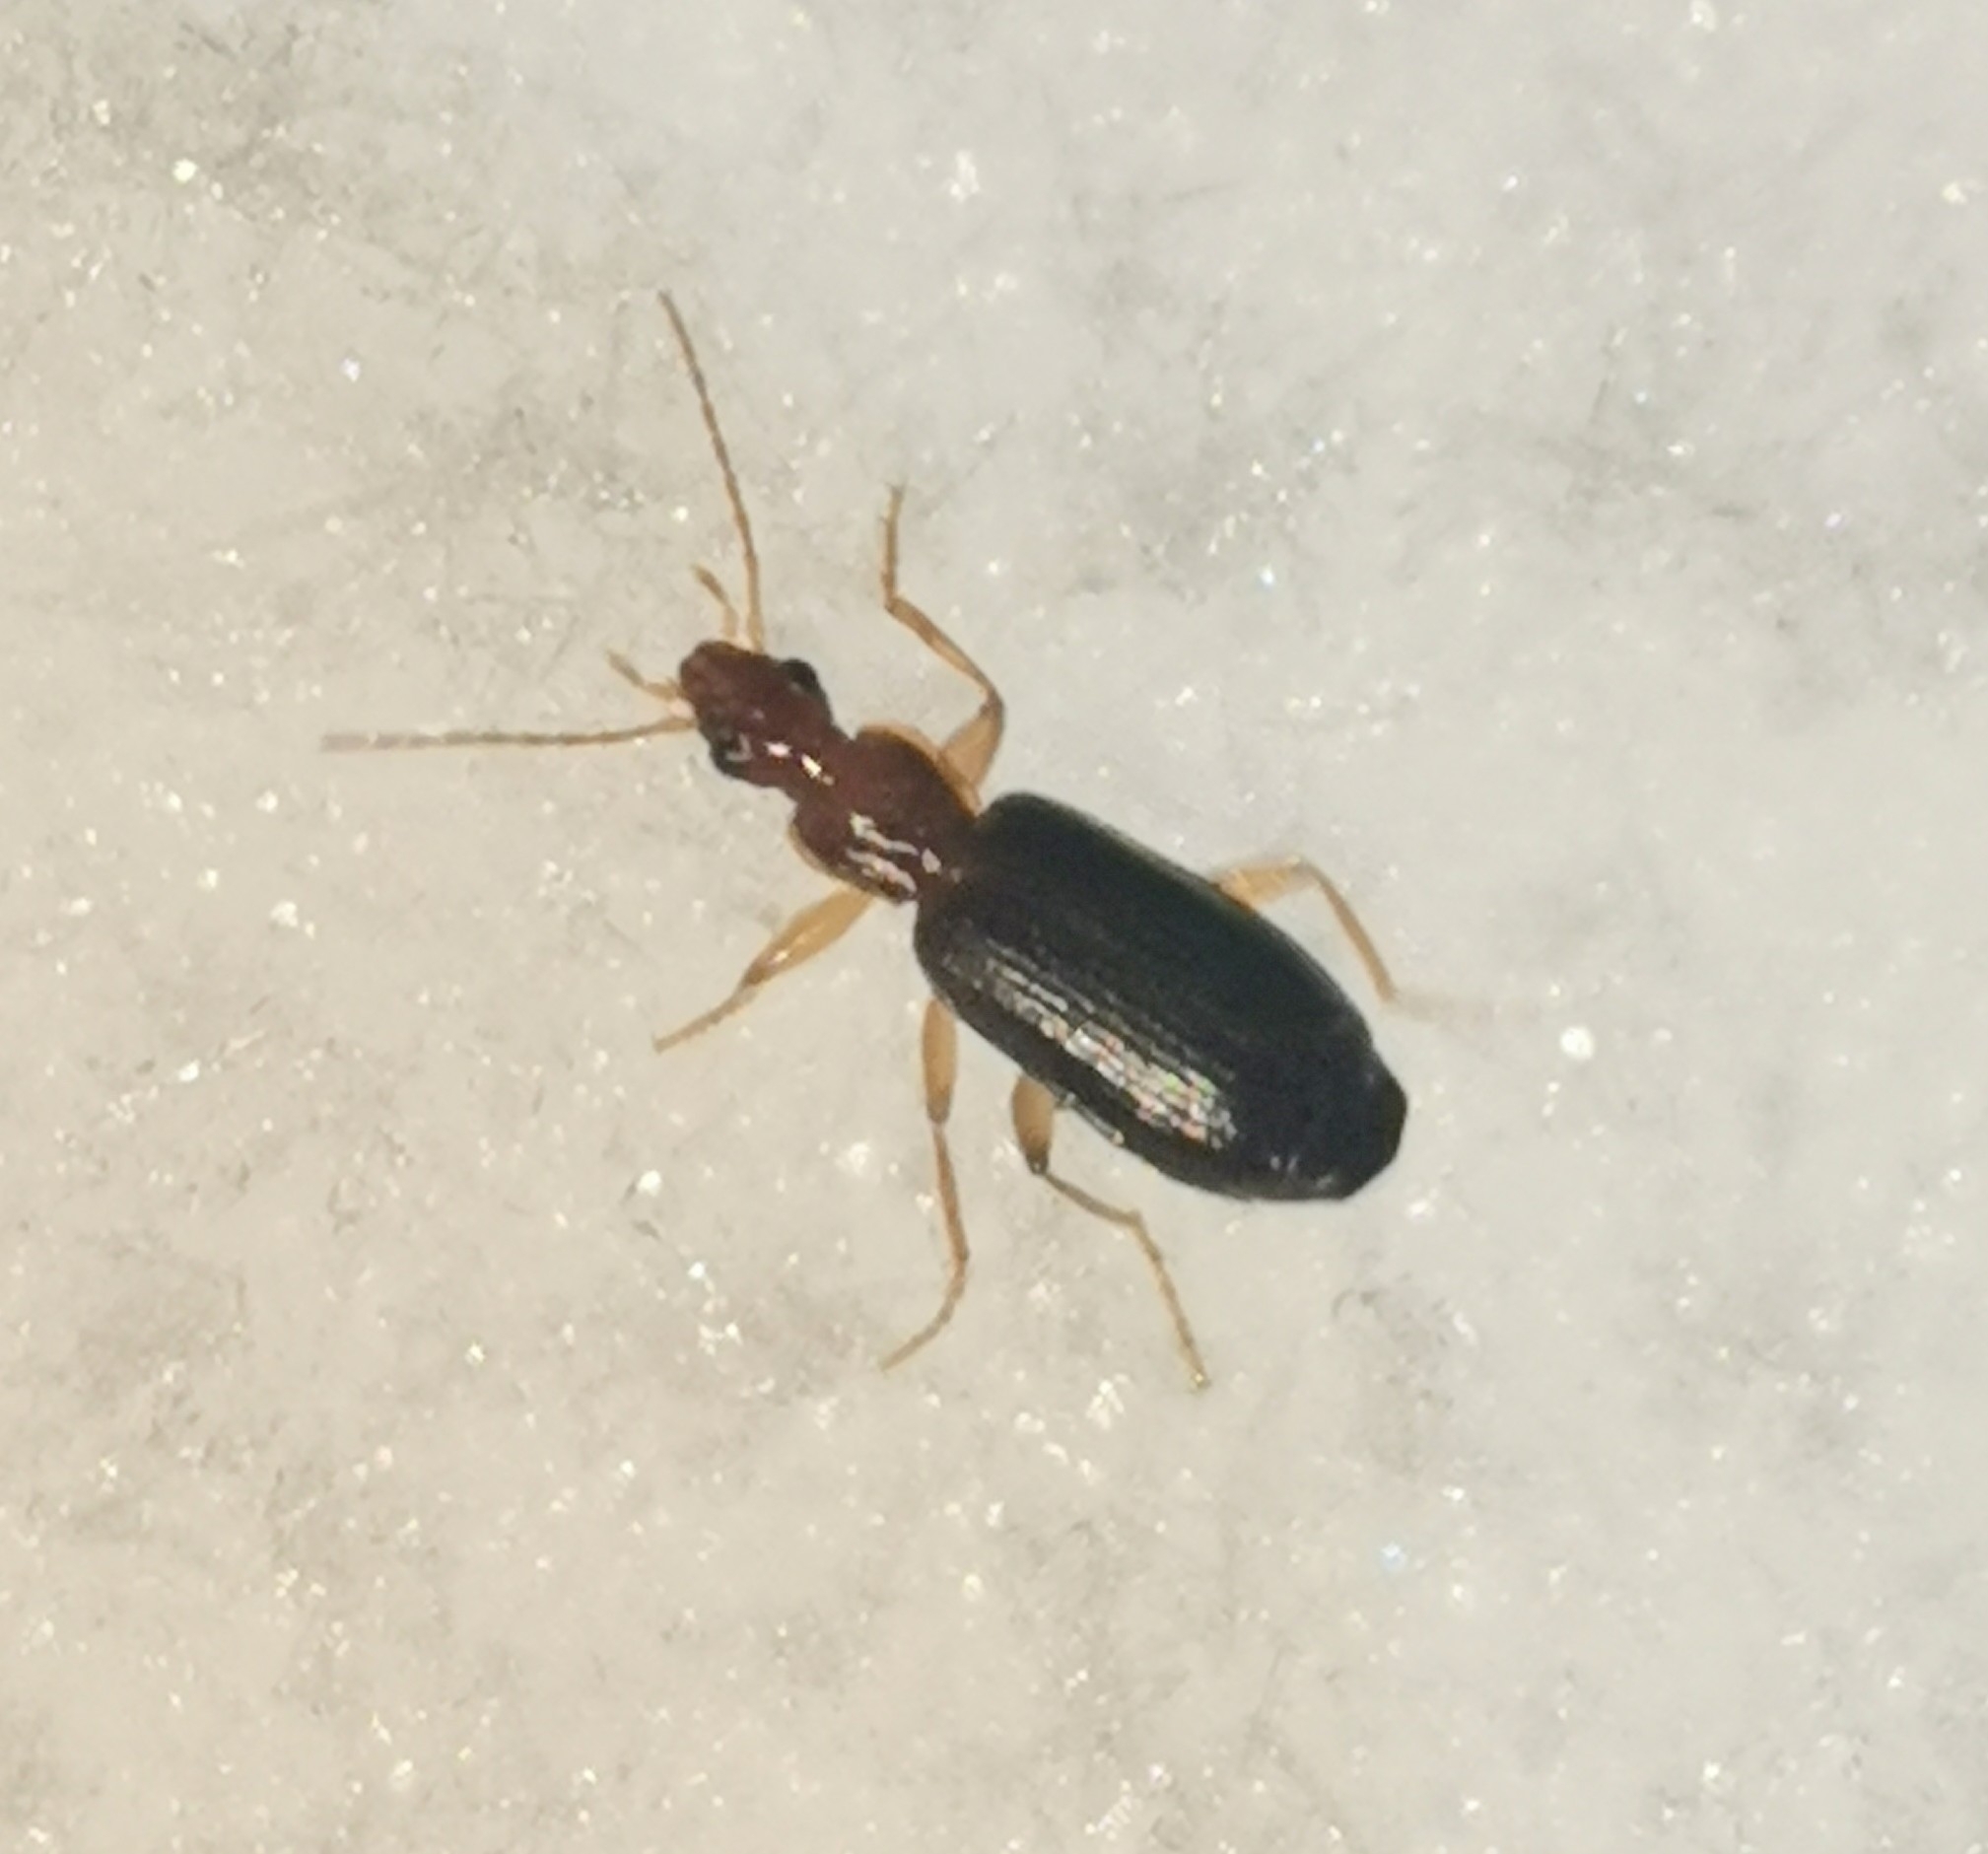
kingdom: Animalia
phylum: Arthropoda
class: Insecta
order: Coleoptera
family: Carabidae
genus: Dromius
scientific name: Dromius agilis
